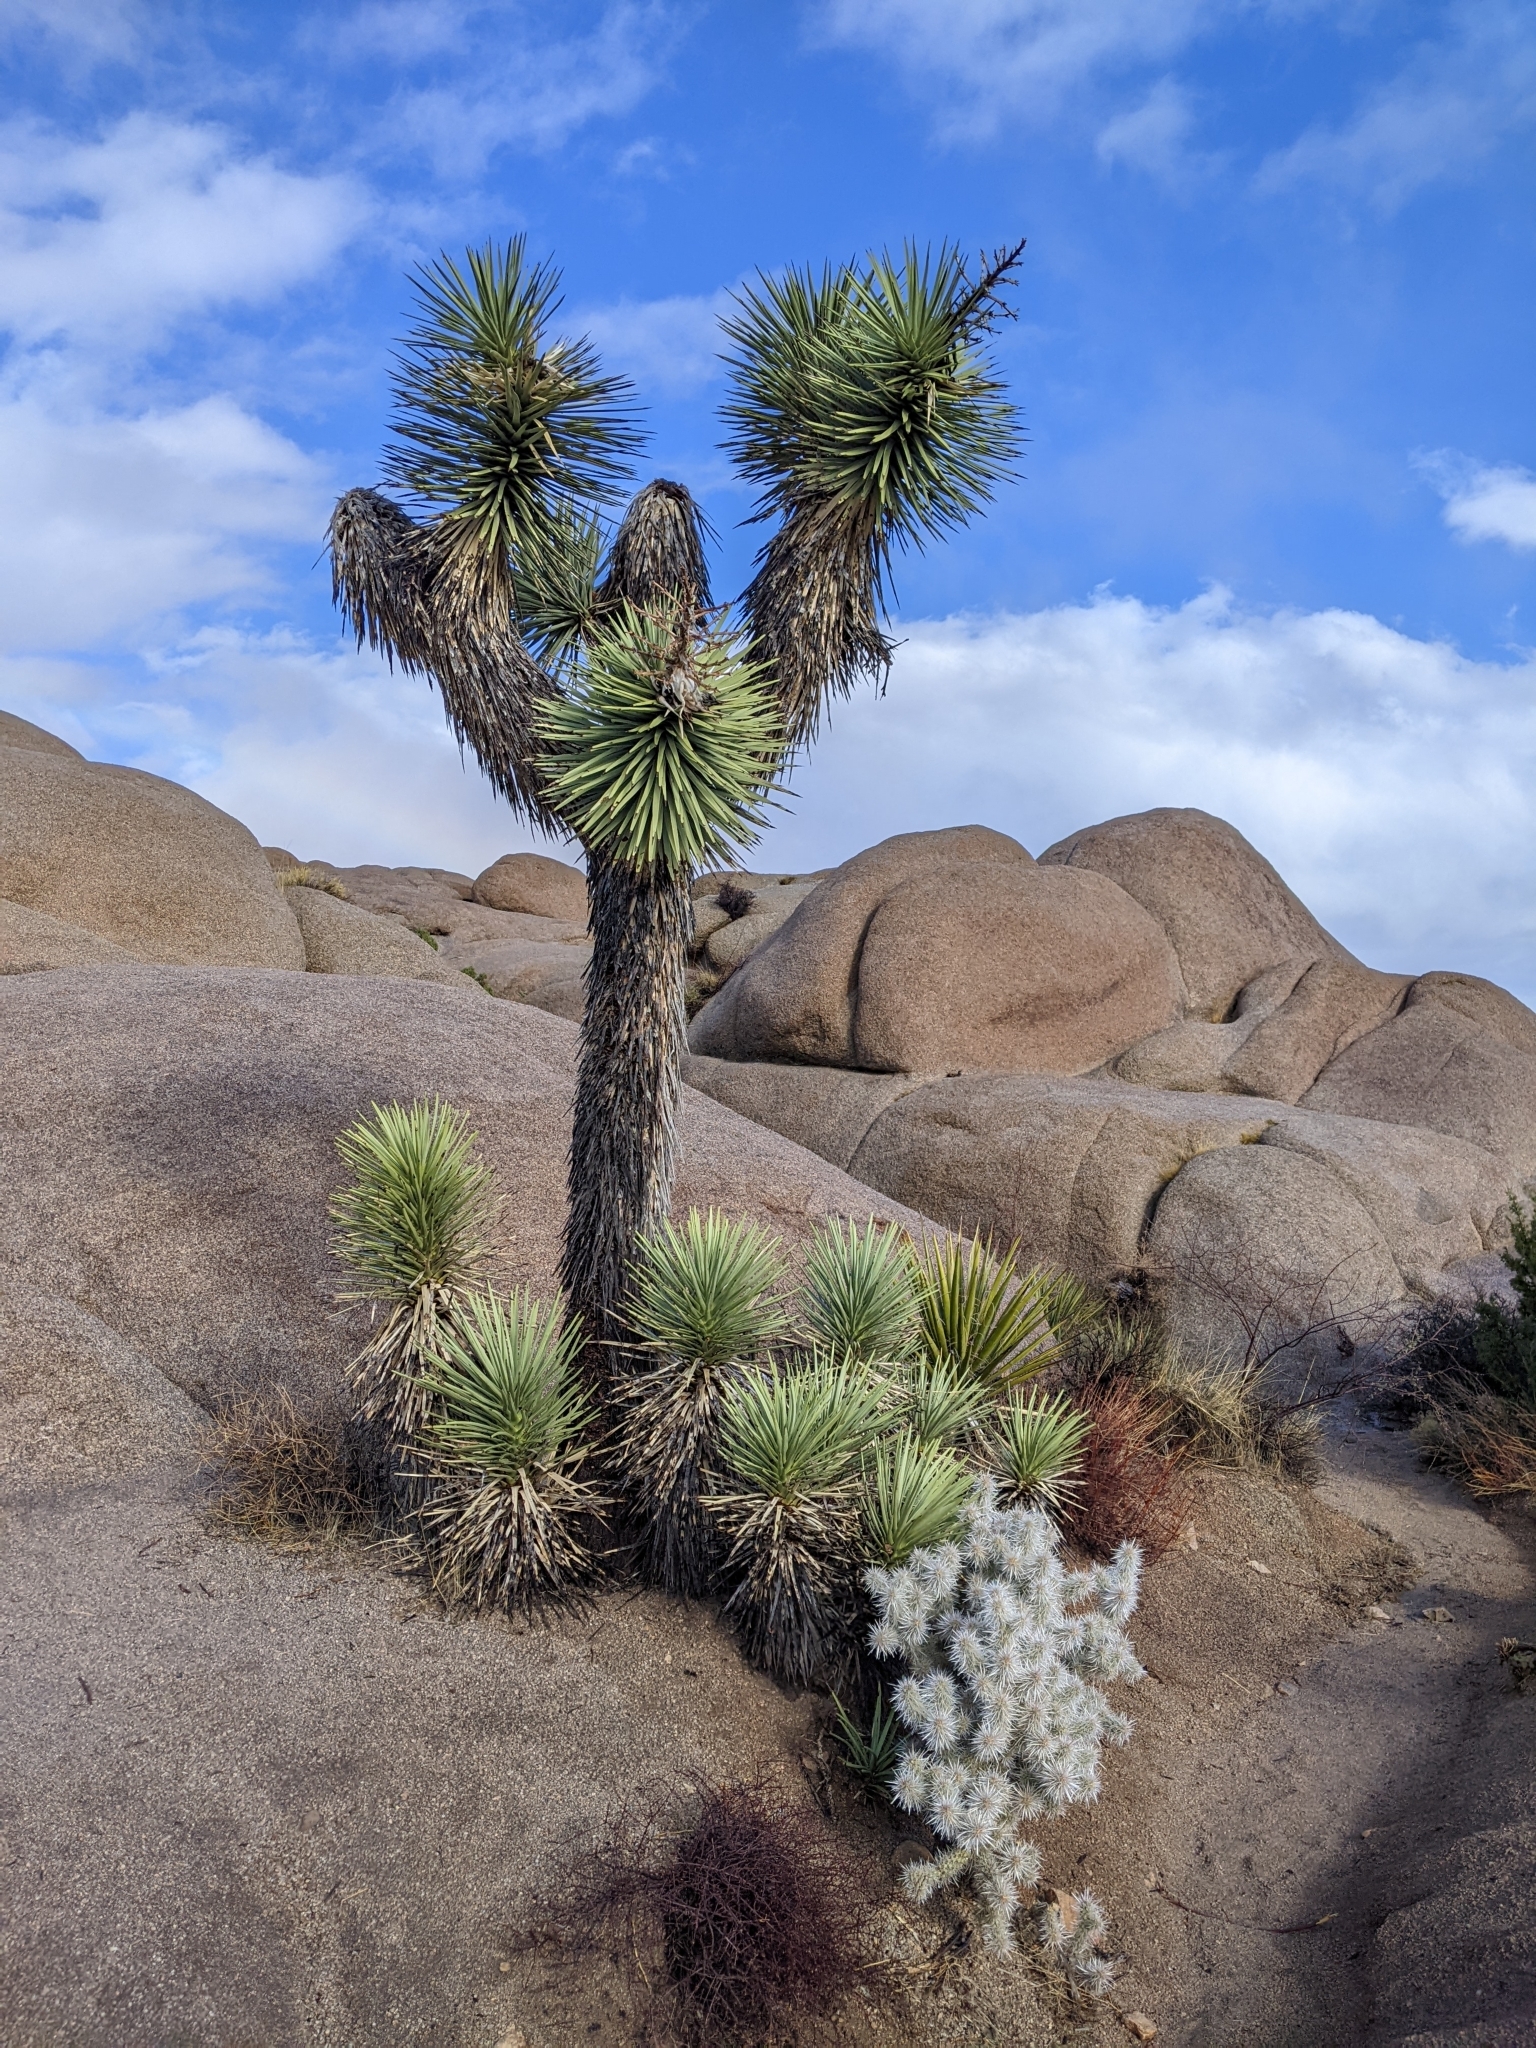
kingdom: Plantae
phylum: Tracheophyta
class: Liliopsida
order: Asparagales
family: Asparagaceae
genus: Yucca
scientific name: Yucca brevifolia
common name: Joshua tree
